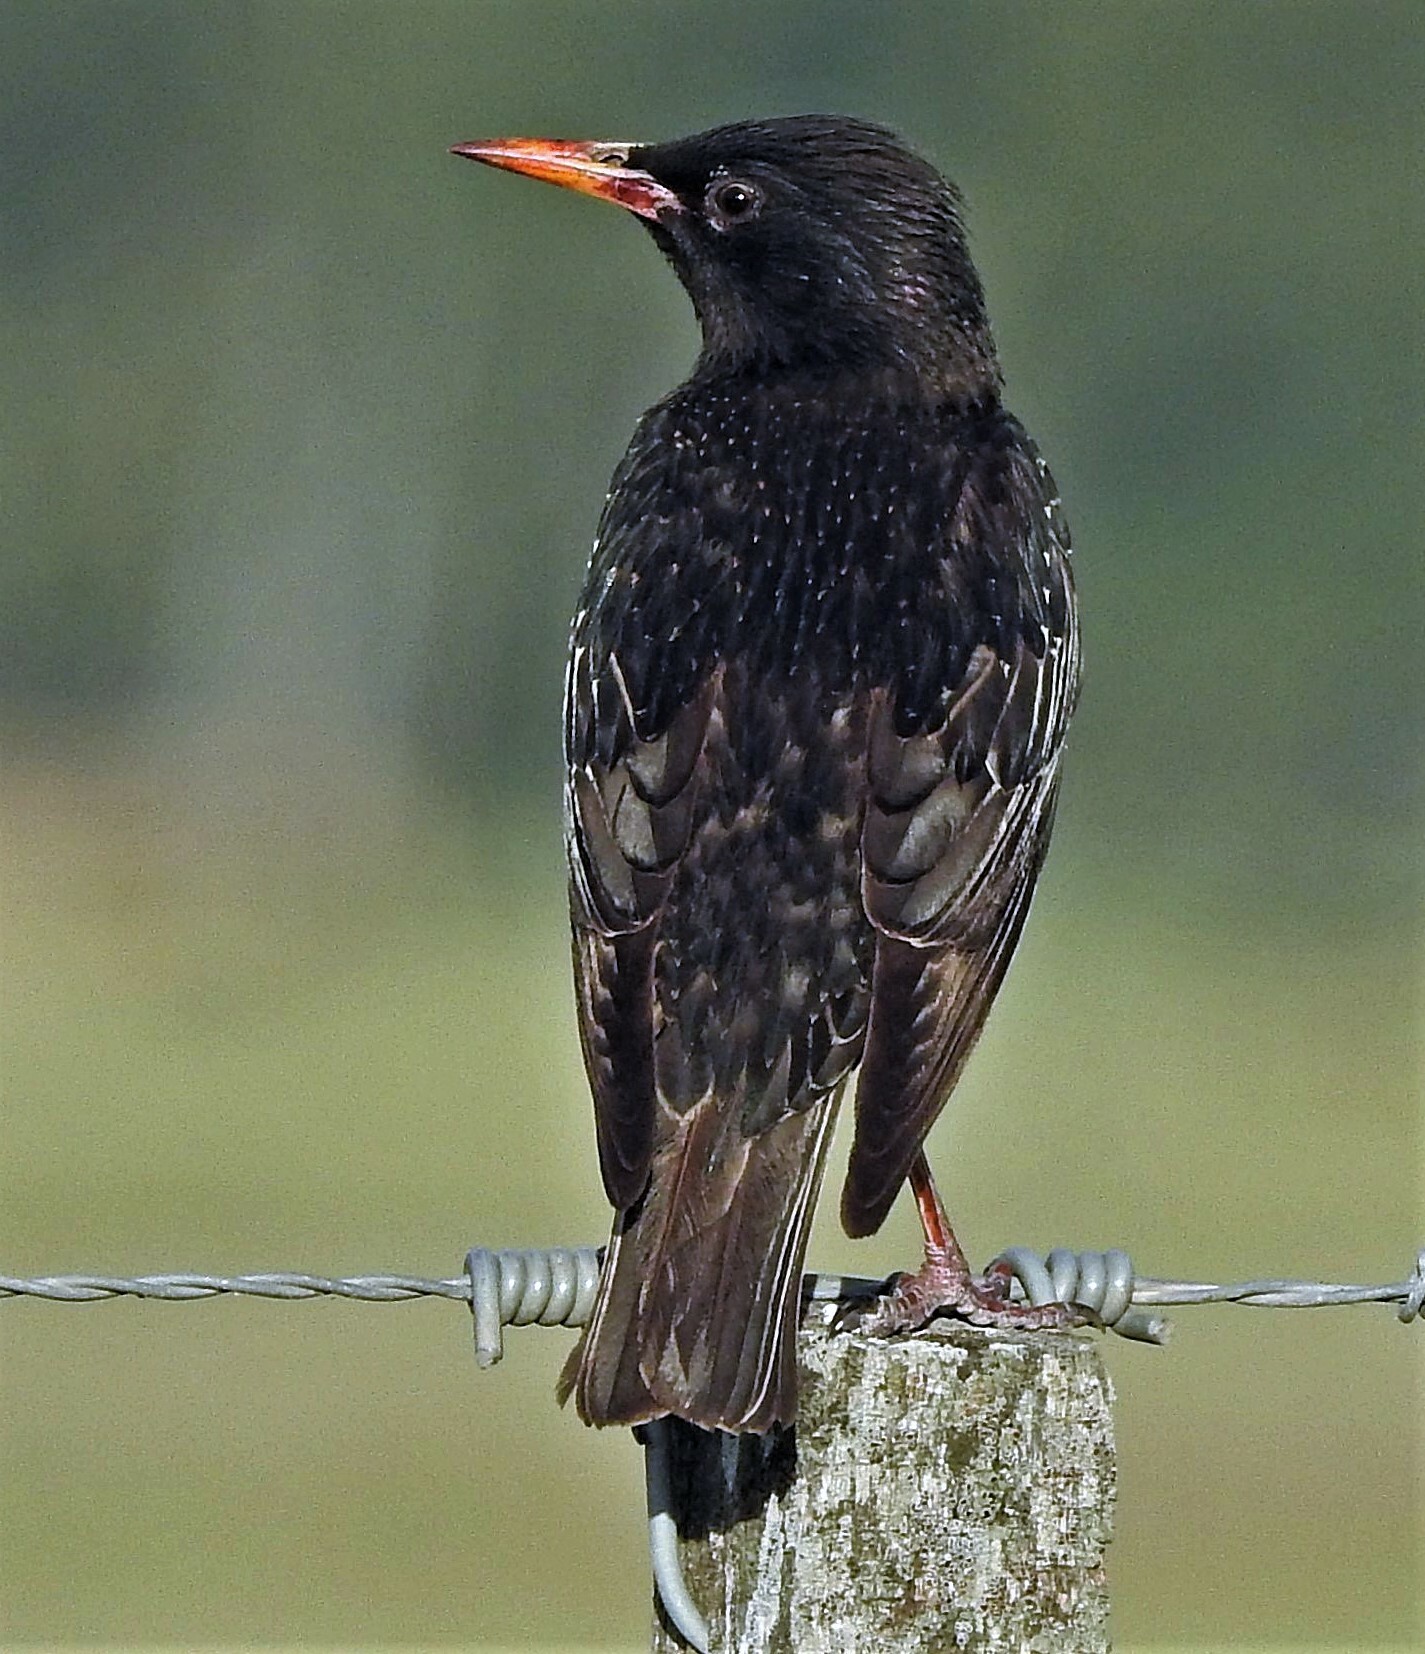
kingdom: Animalia
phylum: Chordata
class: Aves
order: Passeriformes
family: Sturnidae
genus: Sturnus
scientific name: Sturnus vulgaris
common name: Common starling
